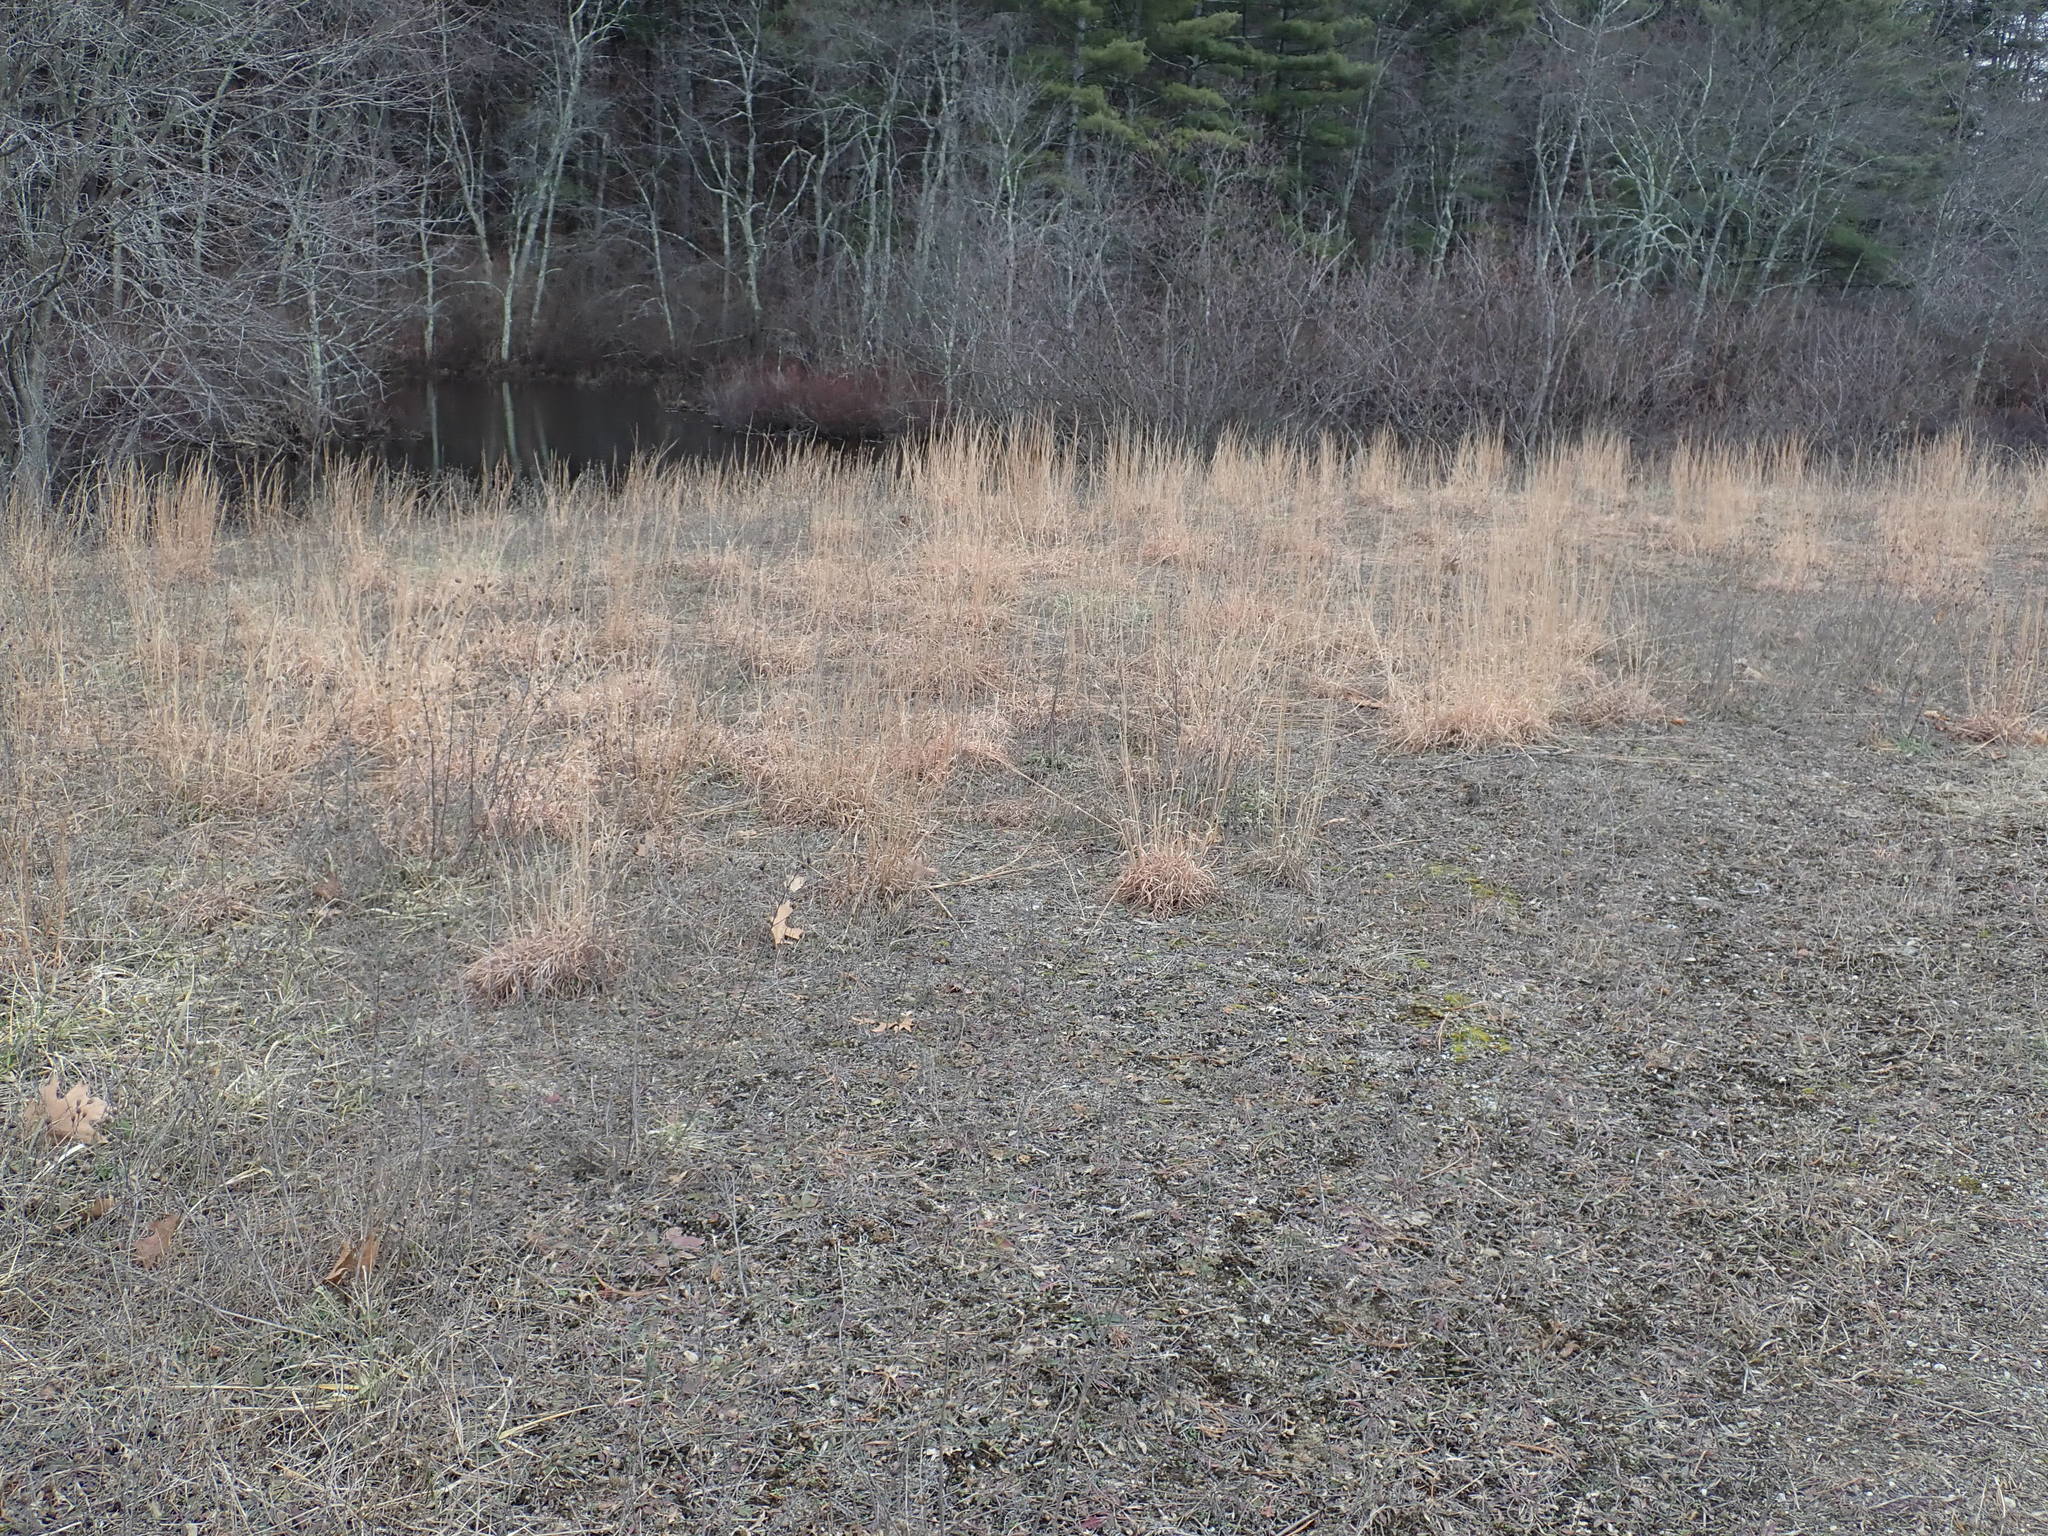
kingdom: Plantae
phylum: Tracheophyta
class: Liliopsida
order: Poales
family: Poaceae
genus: Schizachyrium
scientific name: Schizachyrium scoparium
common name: Little bluestem
